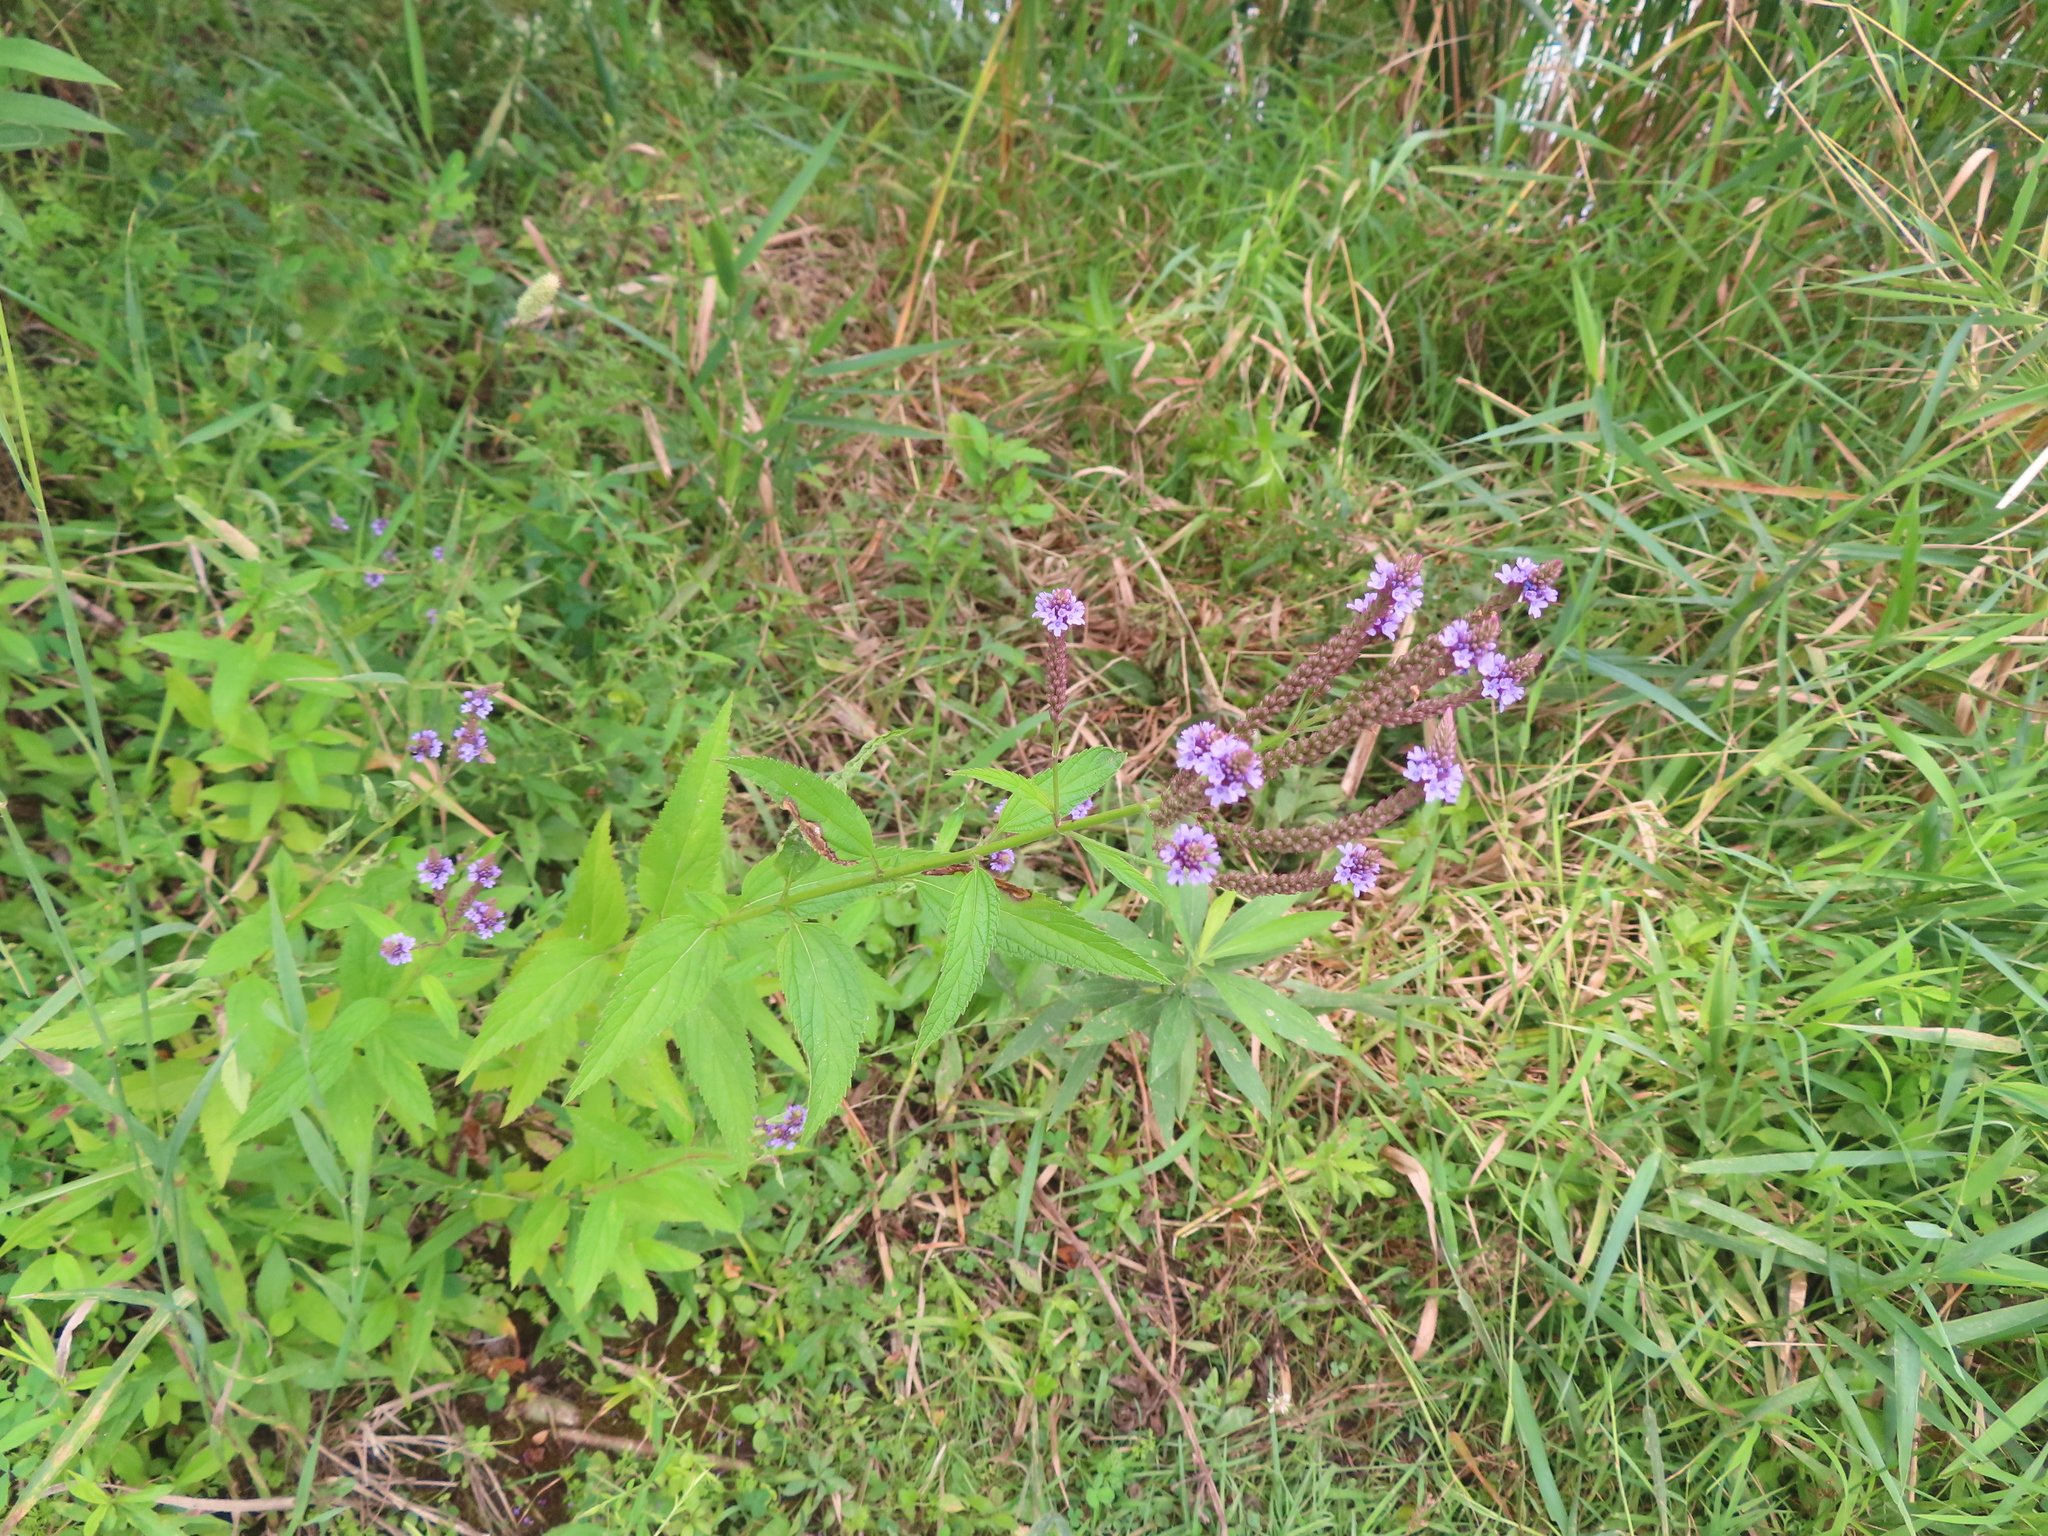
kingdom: Plantae
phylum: Tracheophyta
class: Magnoliopsida
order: Lamiales
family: Verbenaceae
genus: Verbena
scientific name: Verbena hastata
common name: American blue vervain
